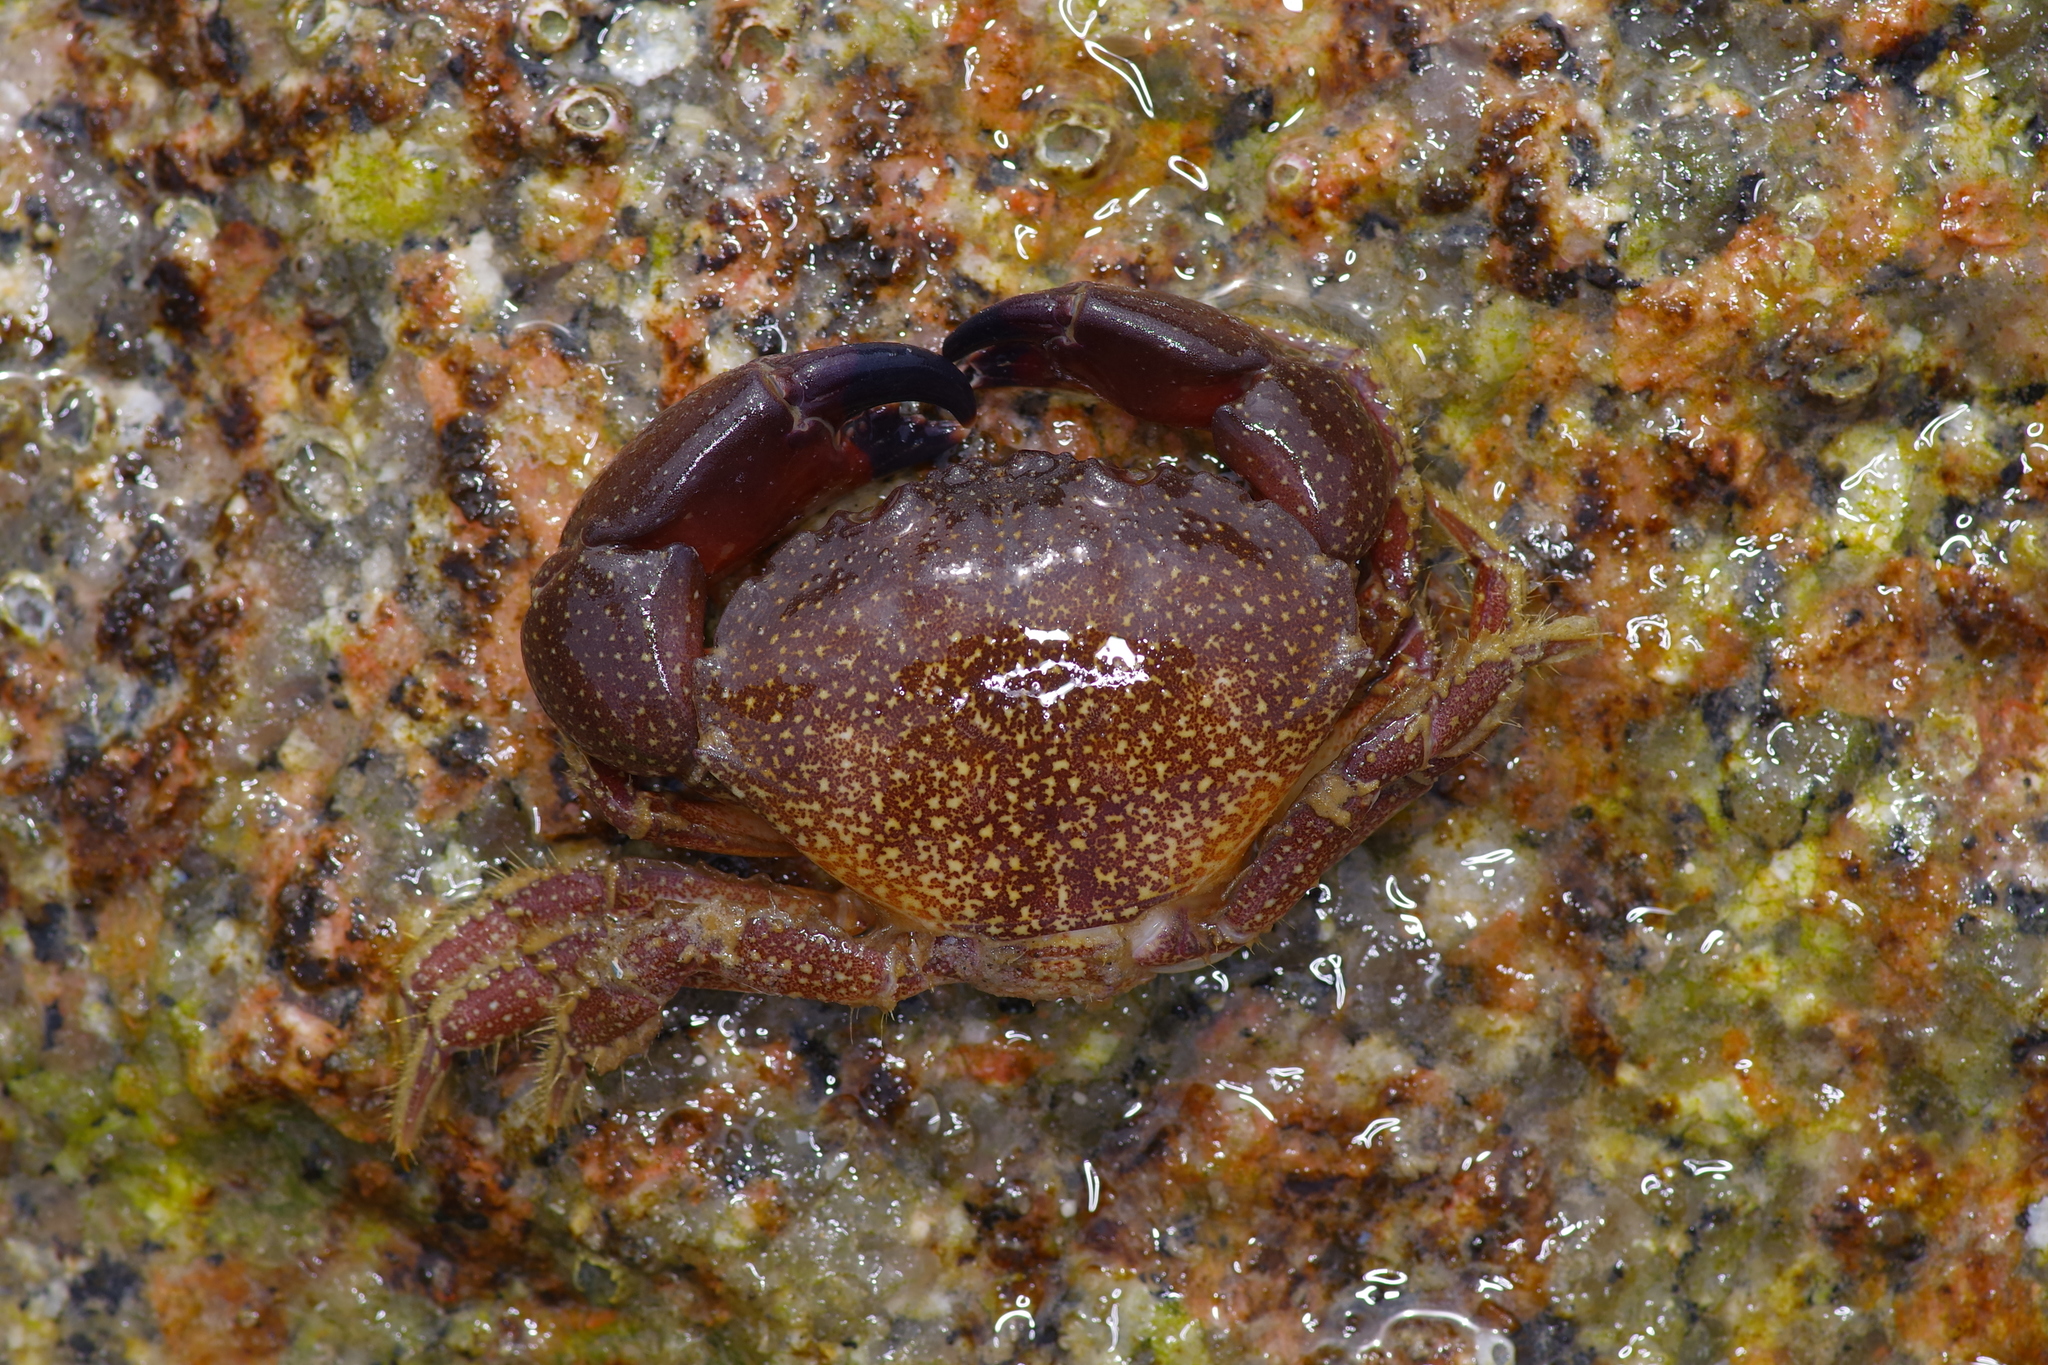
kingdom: Animalia
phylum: Arthropoda
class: Malacostraca
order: Decapoda
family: Menippidae
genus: Menippe
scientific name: Menippe adina
